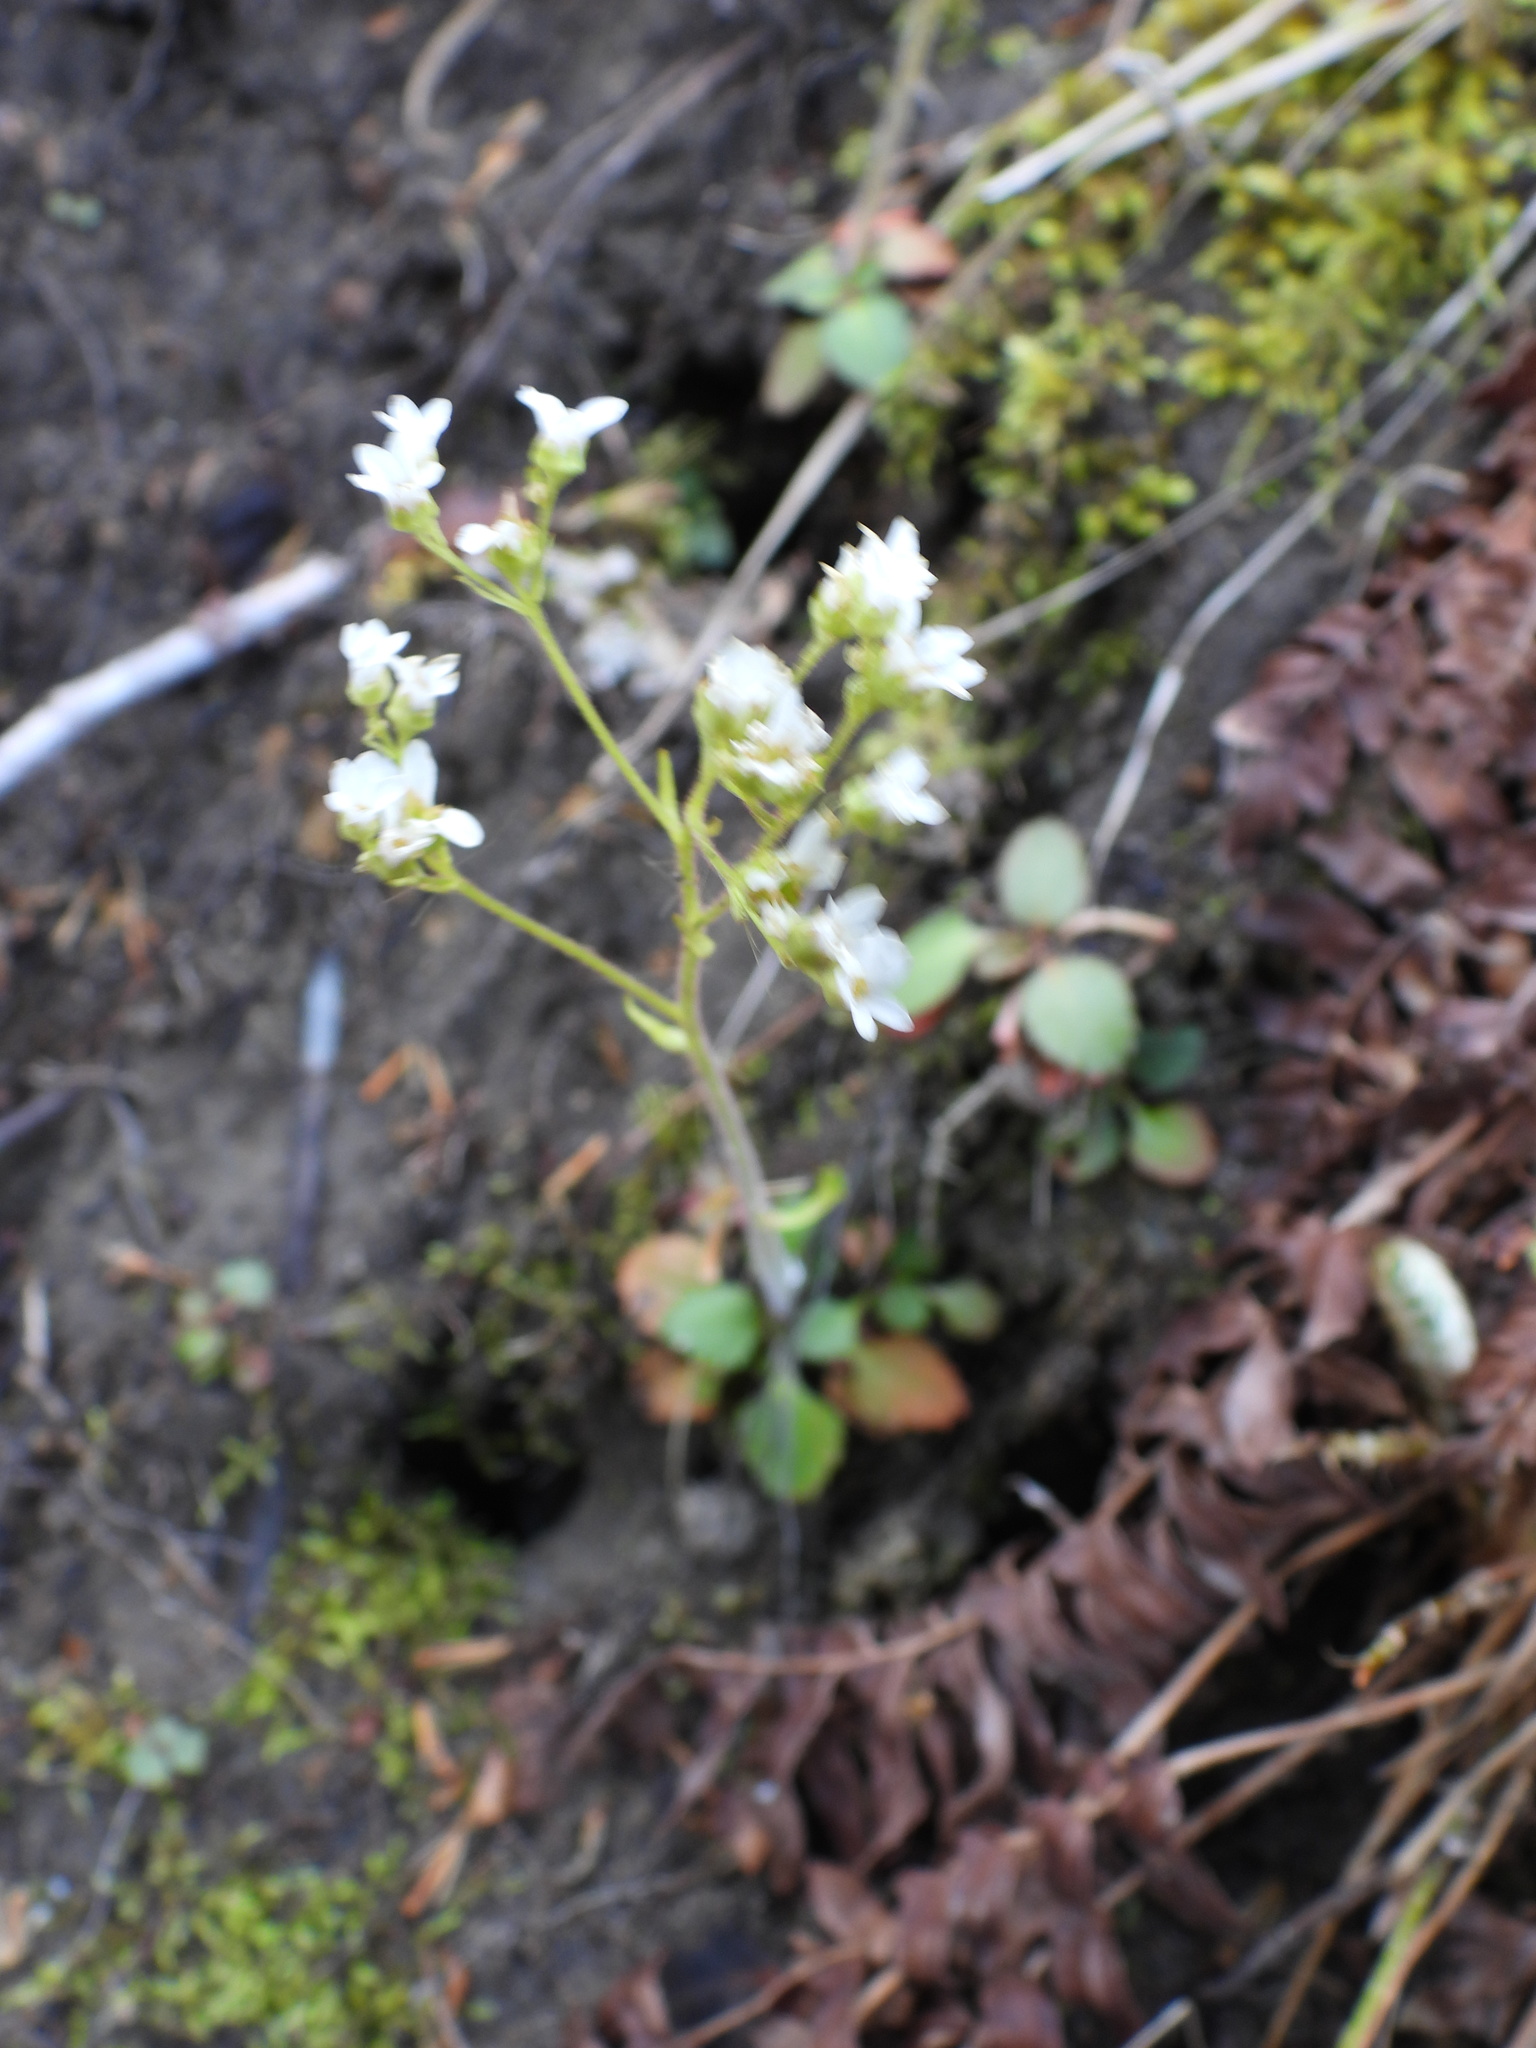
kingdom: Plantae
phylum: Tracheophyta
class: Magnoliopsida
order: Saxifragales
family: Saxifragaceae
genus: Micranthes
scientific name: Micranthes virginiensis
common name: Early saxifrage
